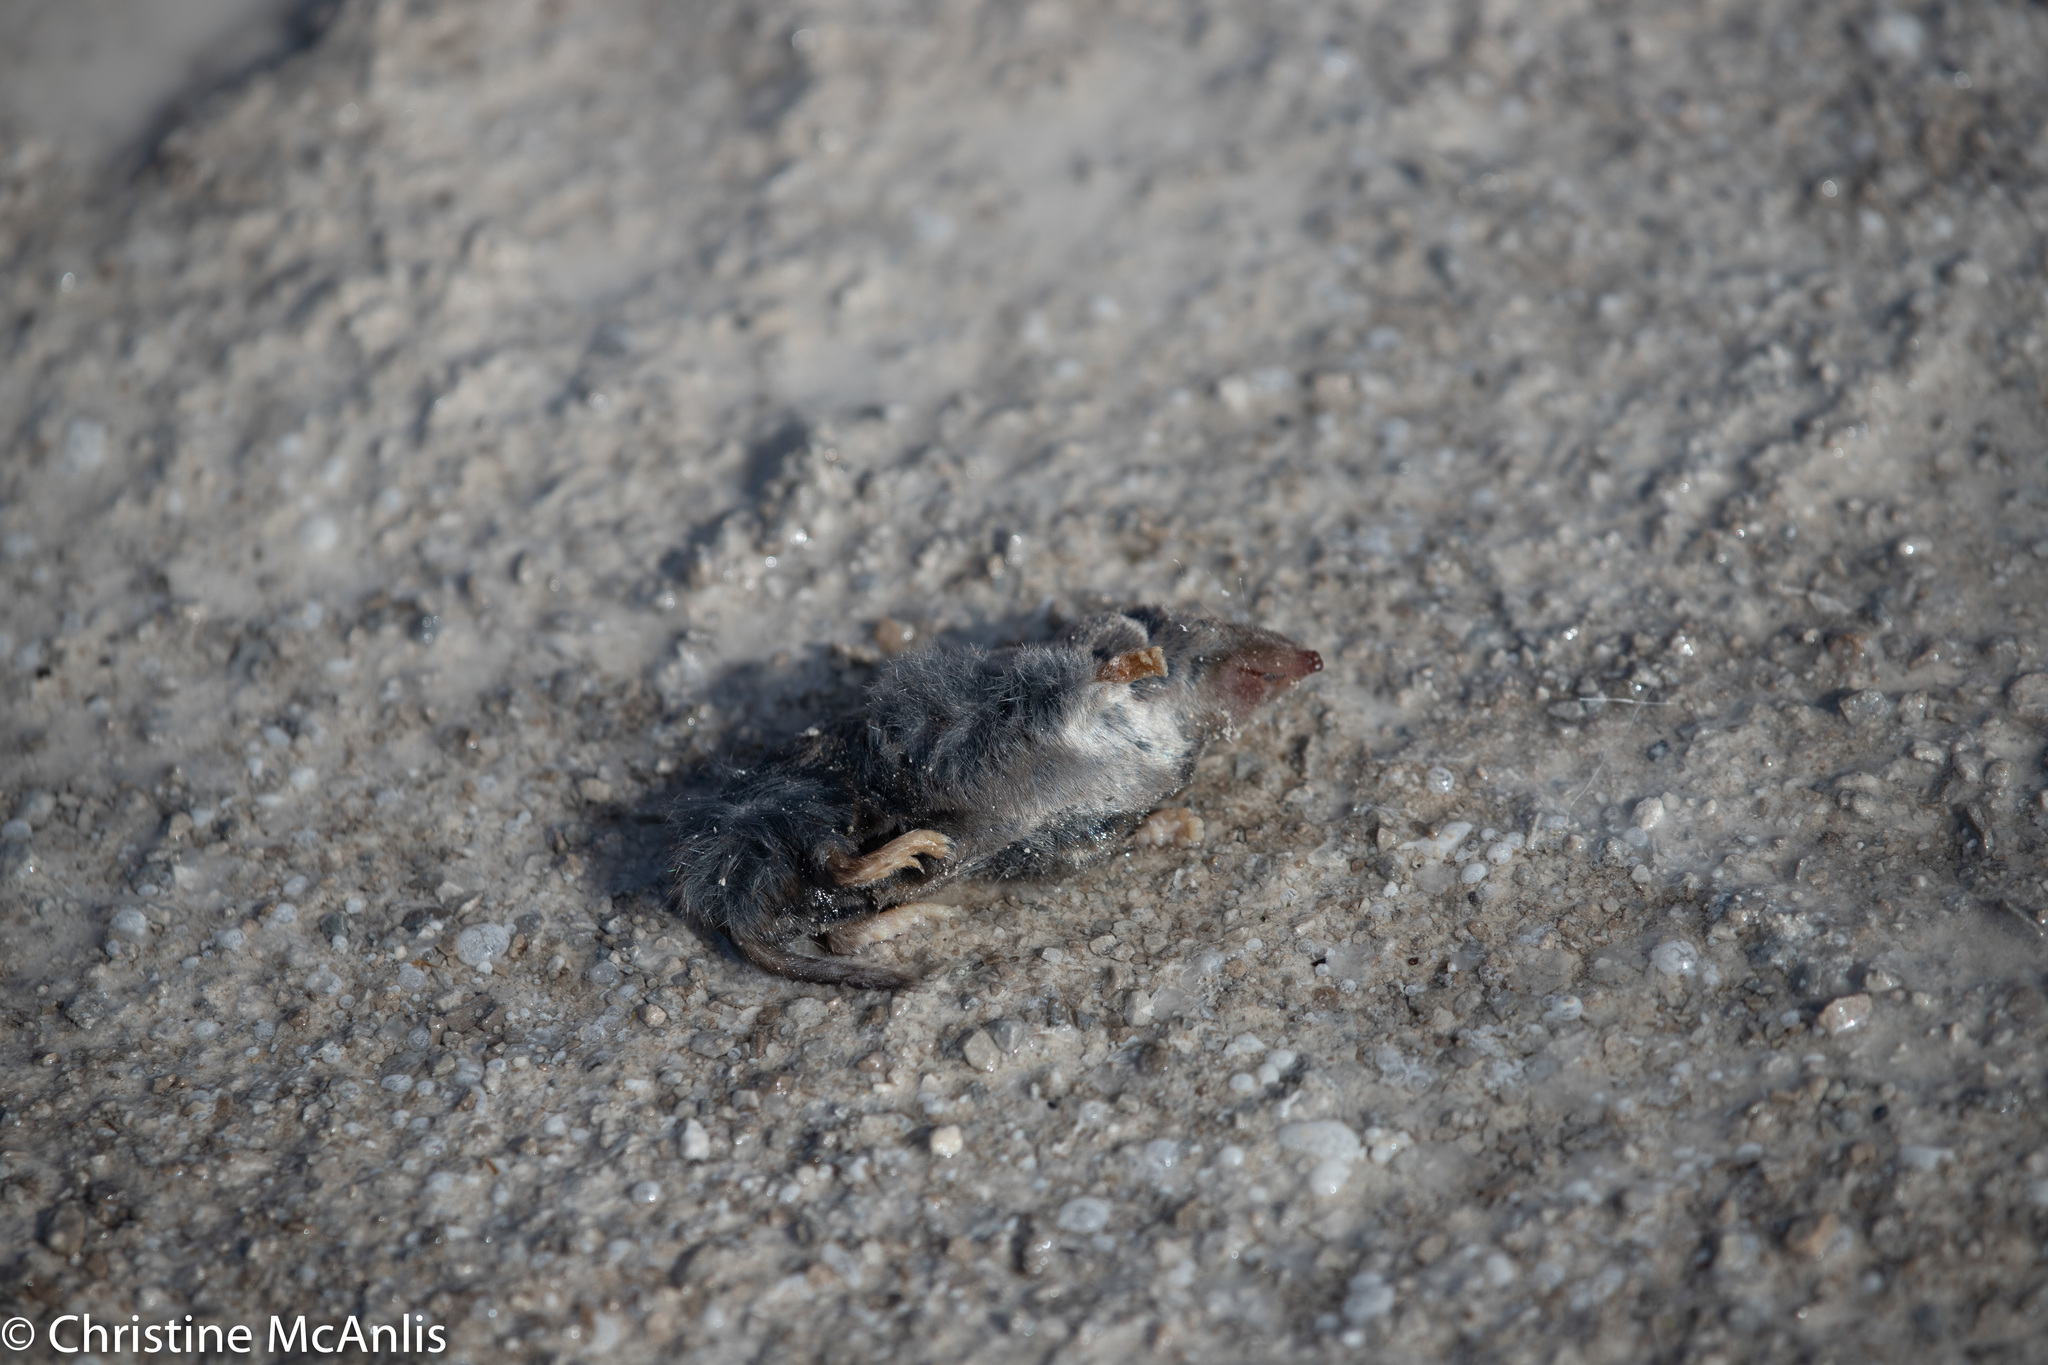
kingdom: Animalia
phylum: Chordata
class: Mammalia
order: Soricomorpha
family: Soricidae
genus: Blarina
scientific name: Blarina brevicauda
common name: Northern short-tailed shrew
